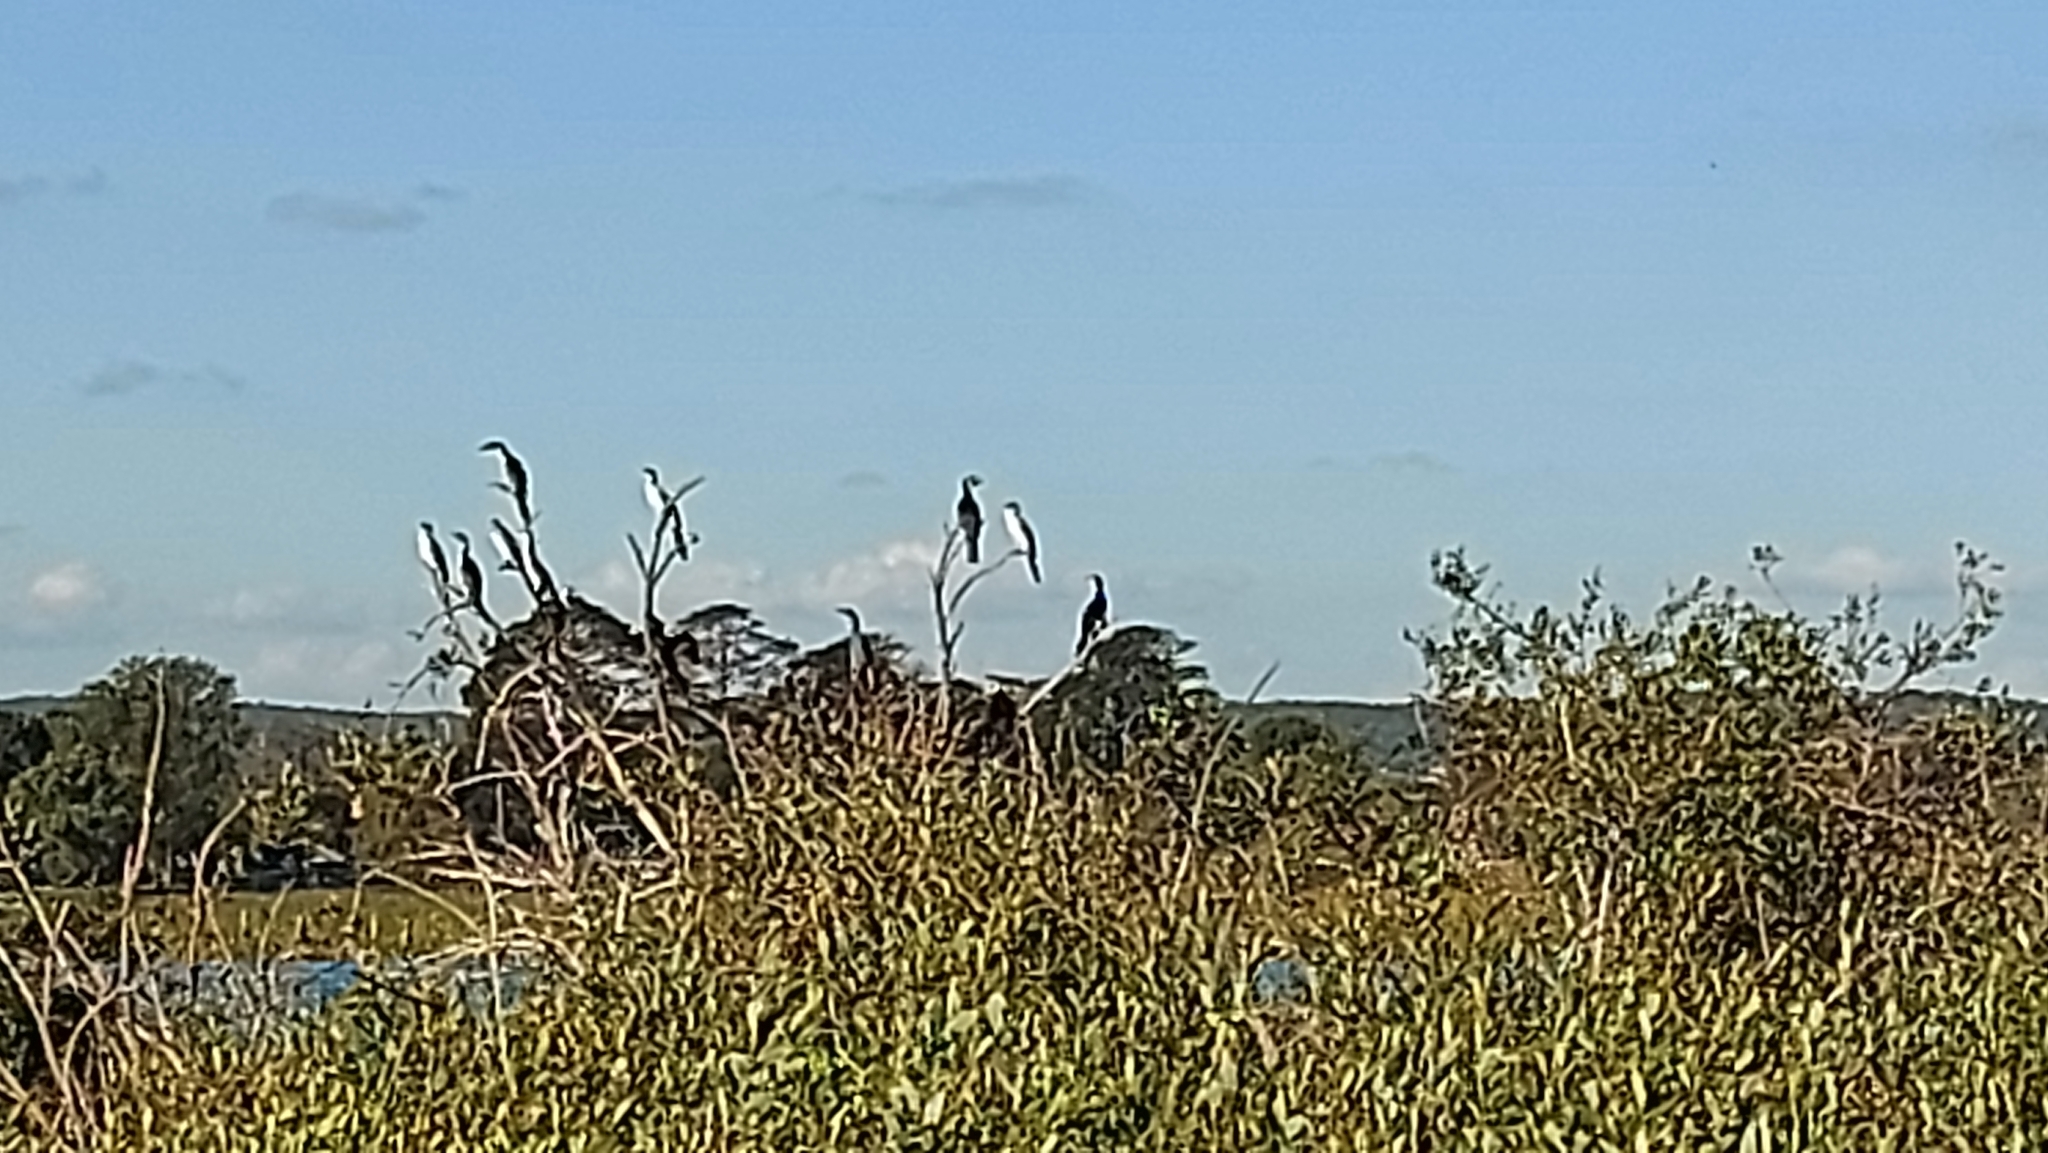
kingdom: Animalia
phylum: Chordata
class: Aves
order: Suliformes
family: Phalacrocoracidae
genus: Microcarbo
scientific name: Microcarbo melanoleucos
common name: Little pied cormorant
